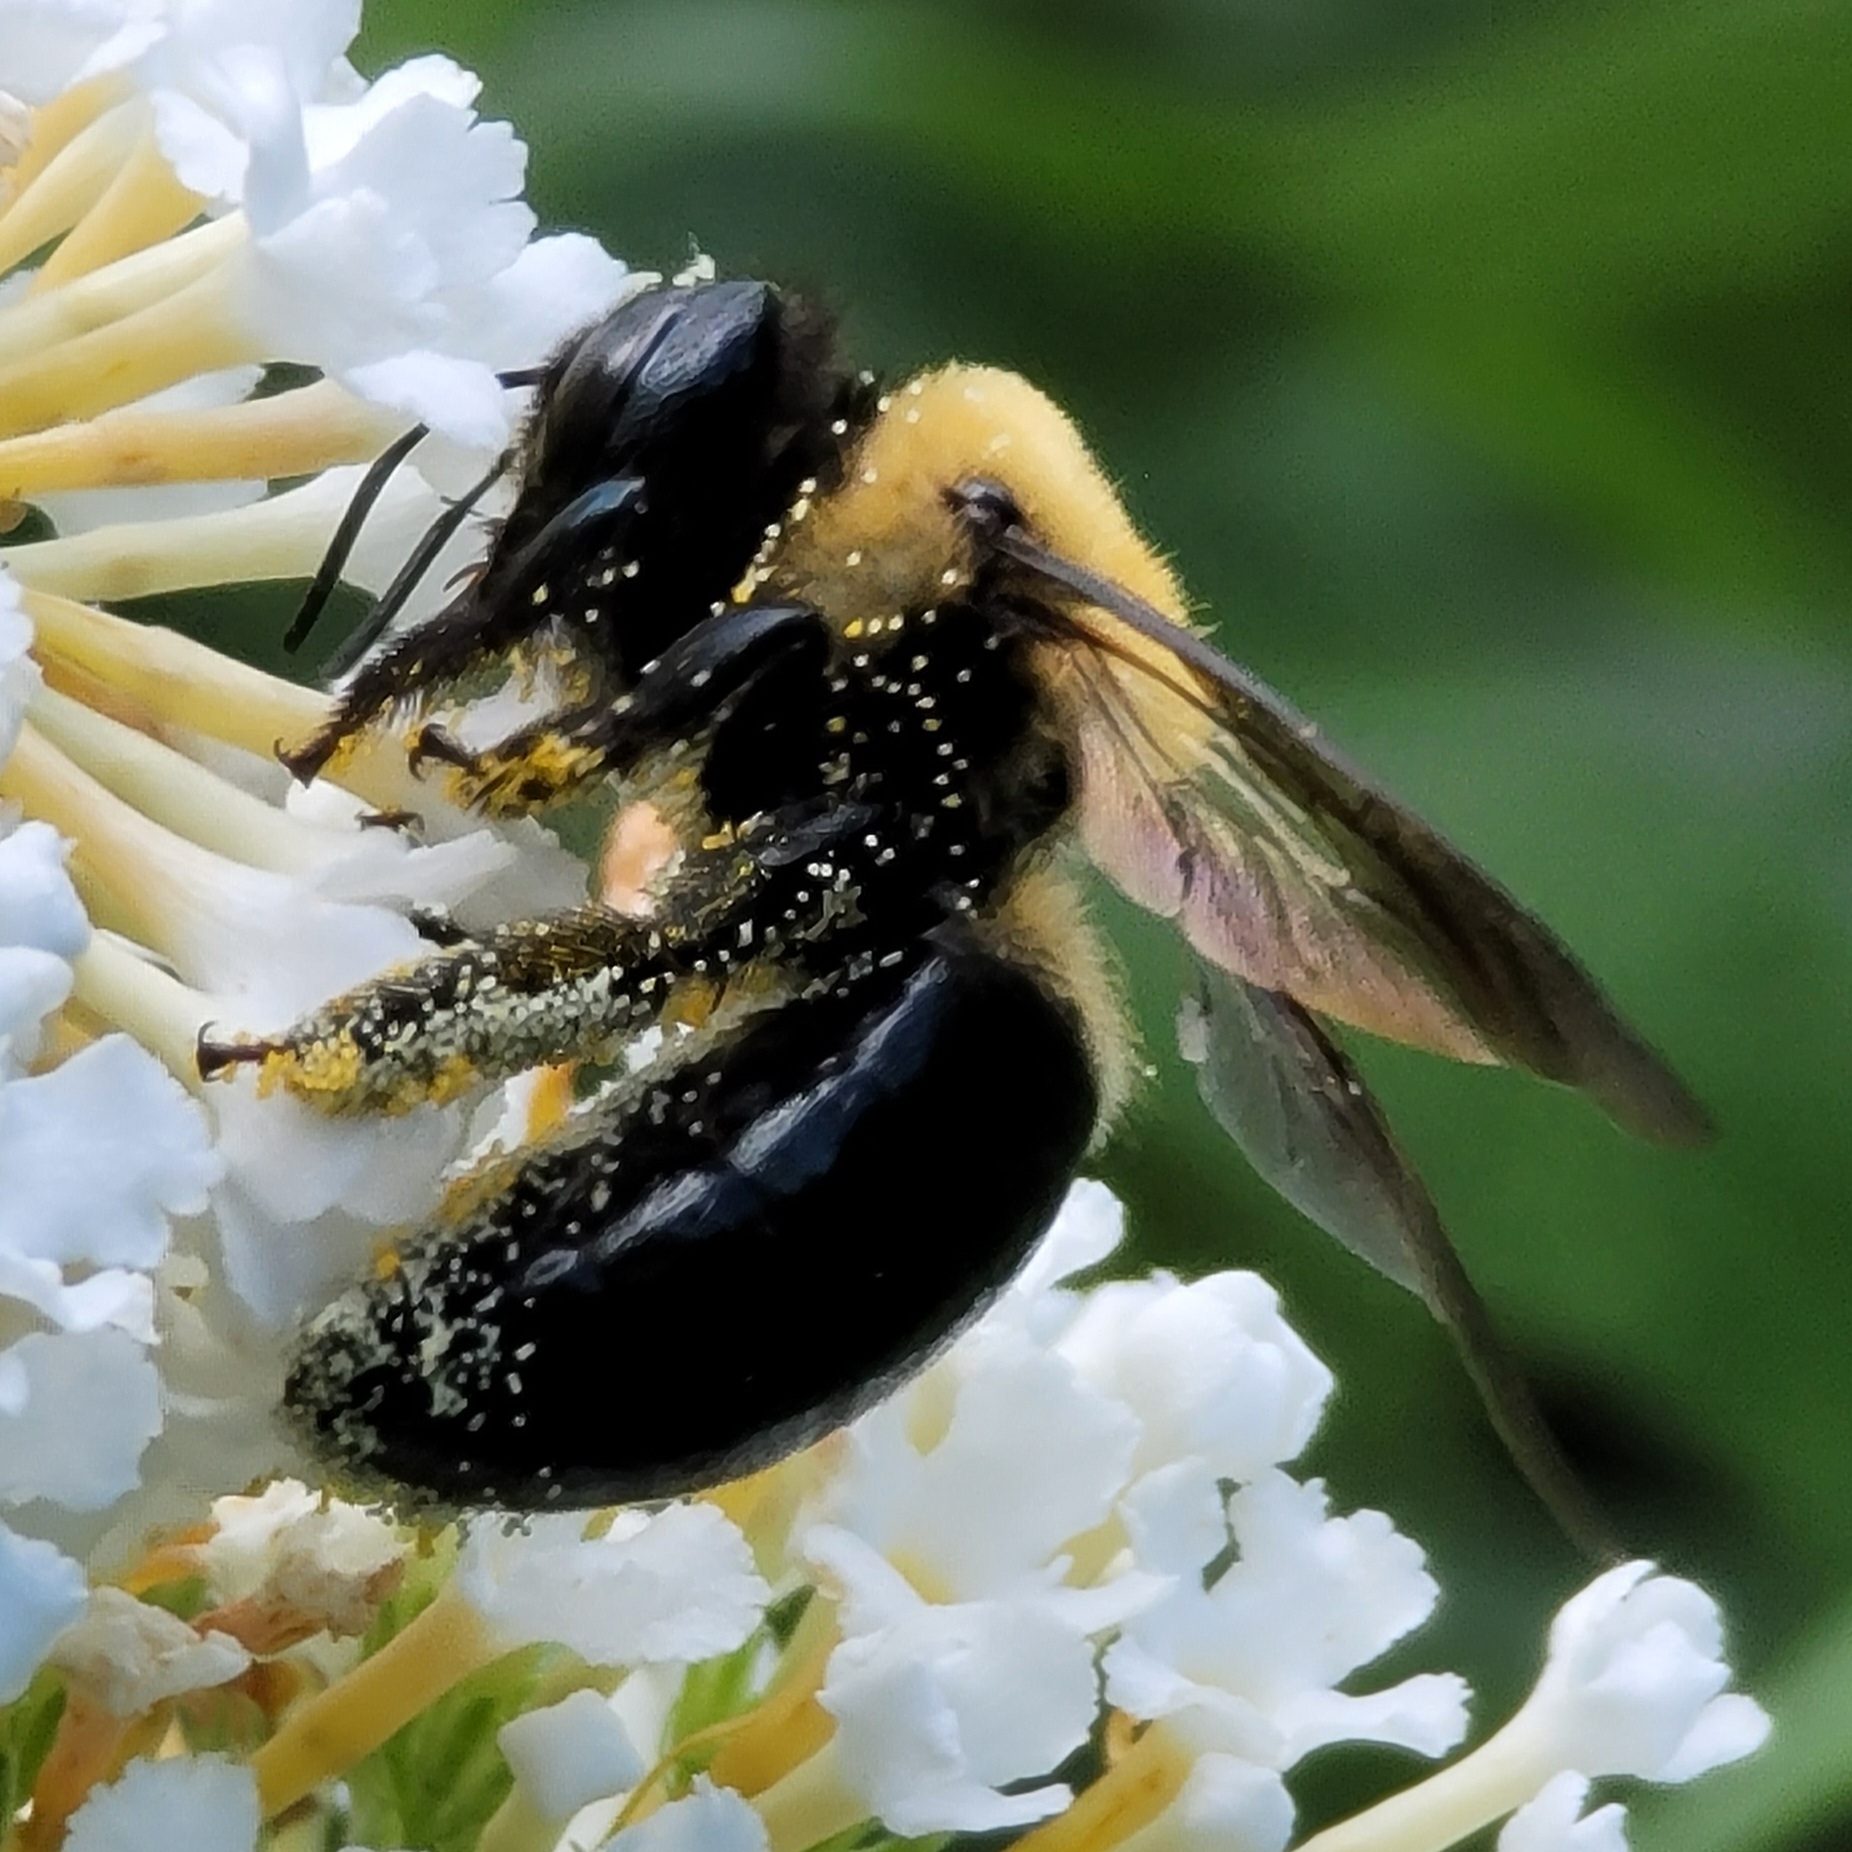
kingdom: Animalia
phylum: Arthropoda
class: Insecta
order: Hymenoptera
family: Apidae
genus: Xylocopa
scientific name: Xylocopa virginica
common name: Carpenter bee
